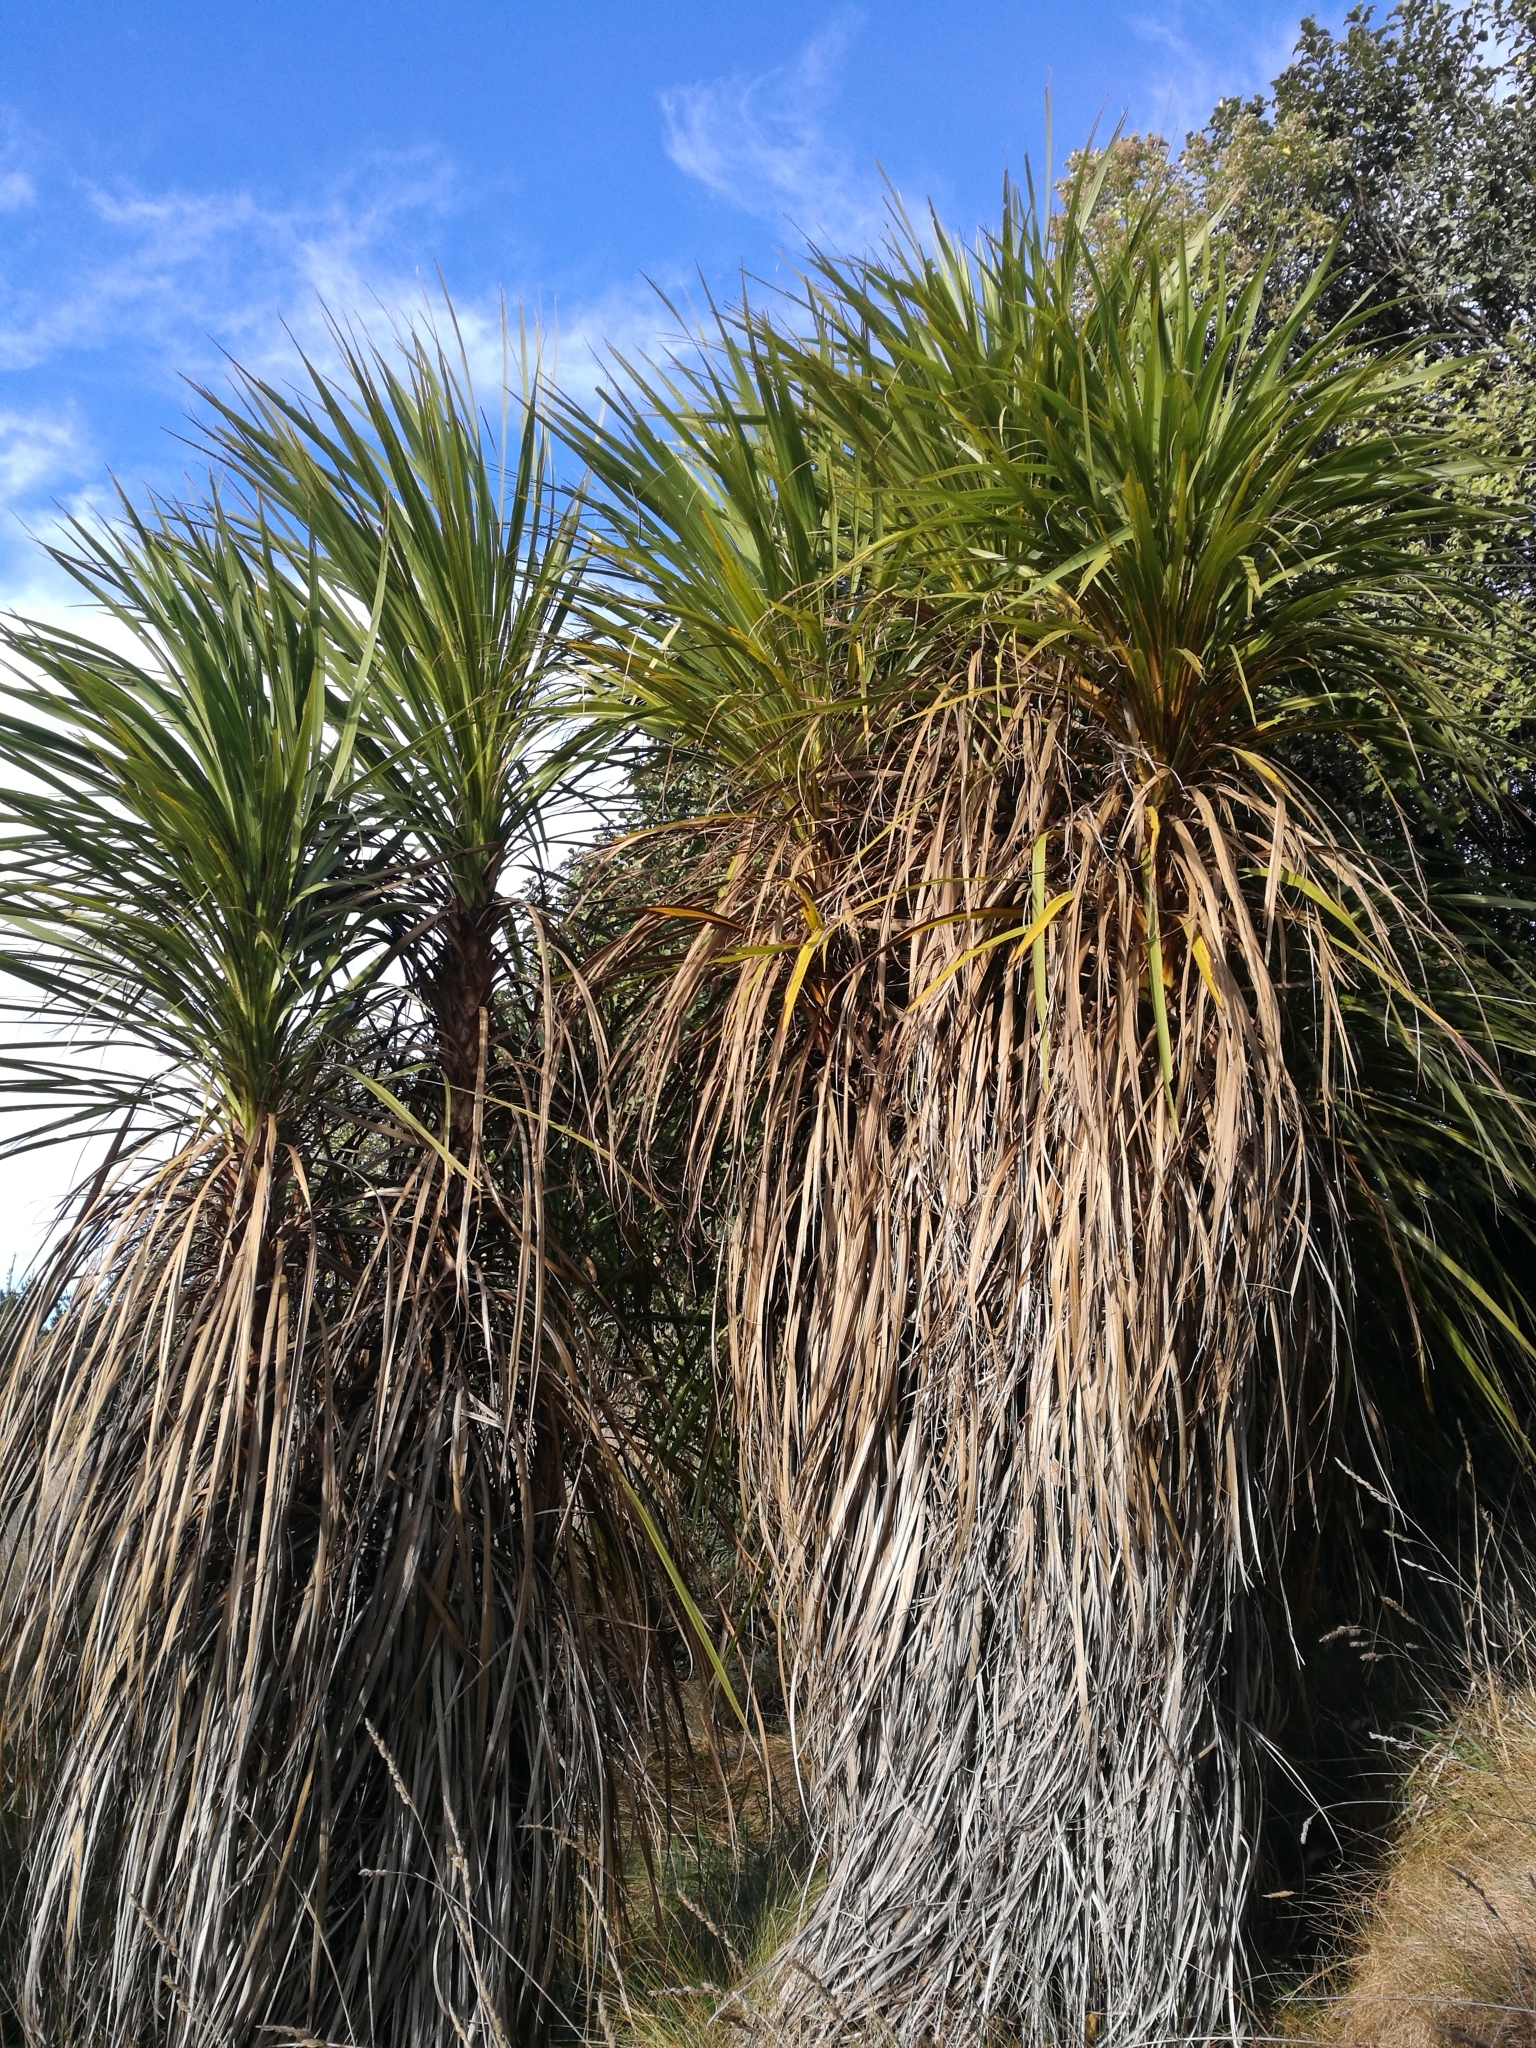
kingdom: Plantae
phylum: Tracheophyta
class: Liliopsida
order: Asparagales
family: Asparagaceae
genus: Cordyline
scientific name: Cordyline australis
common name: Cabbage-palm
